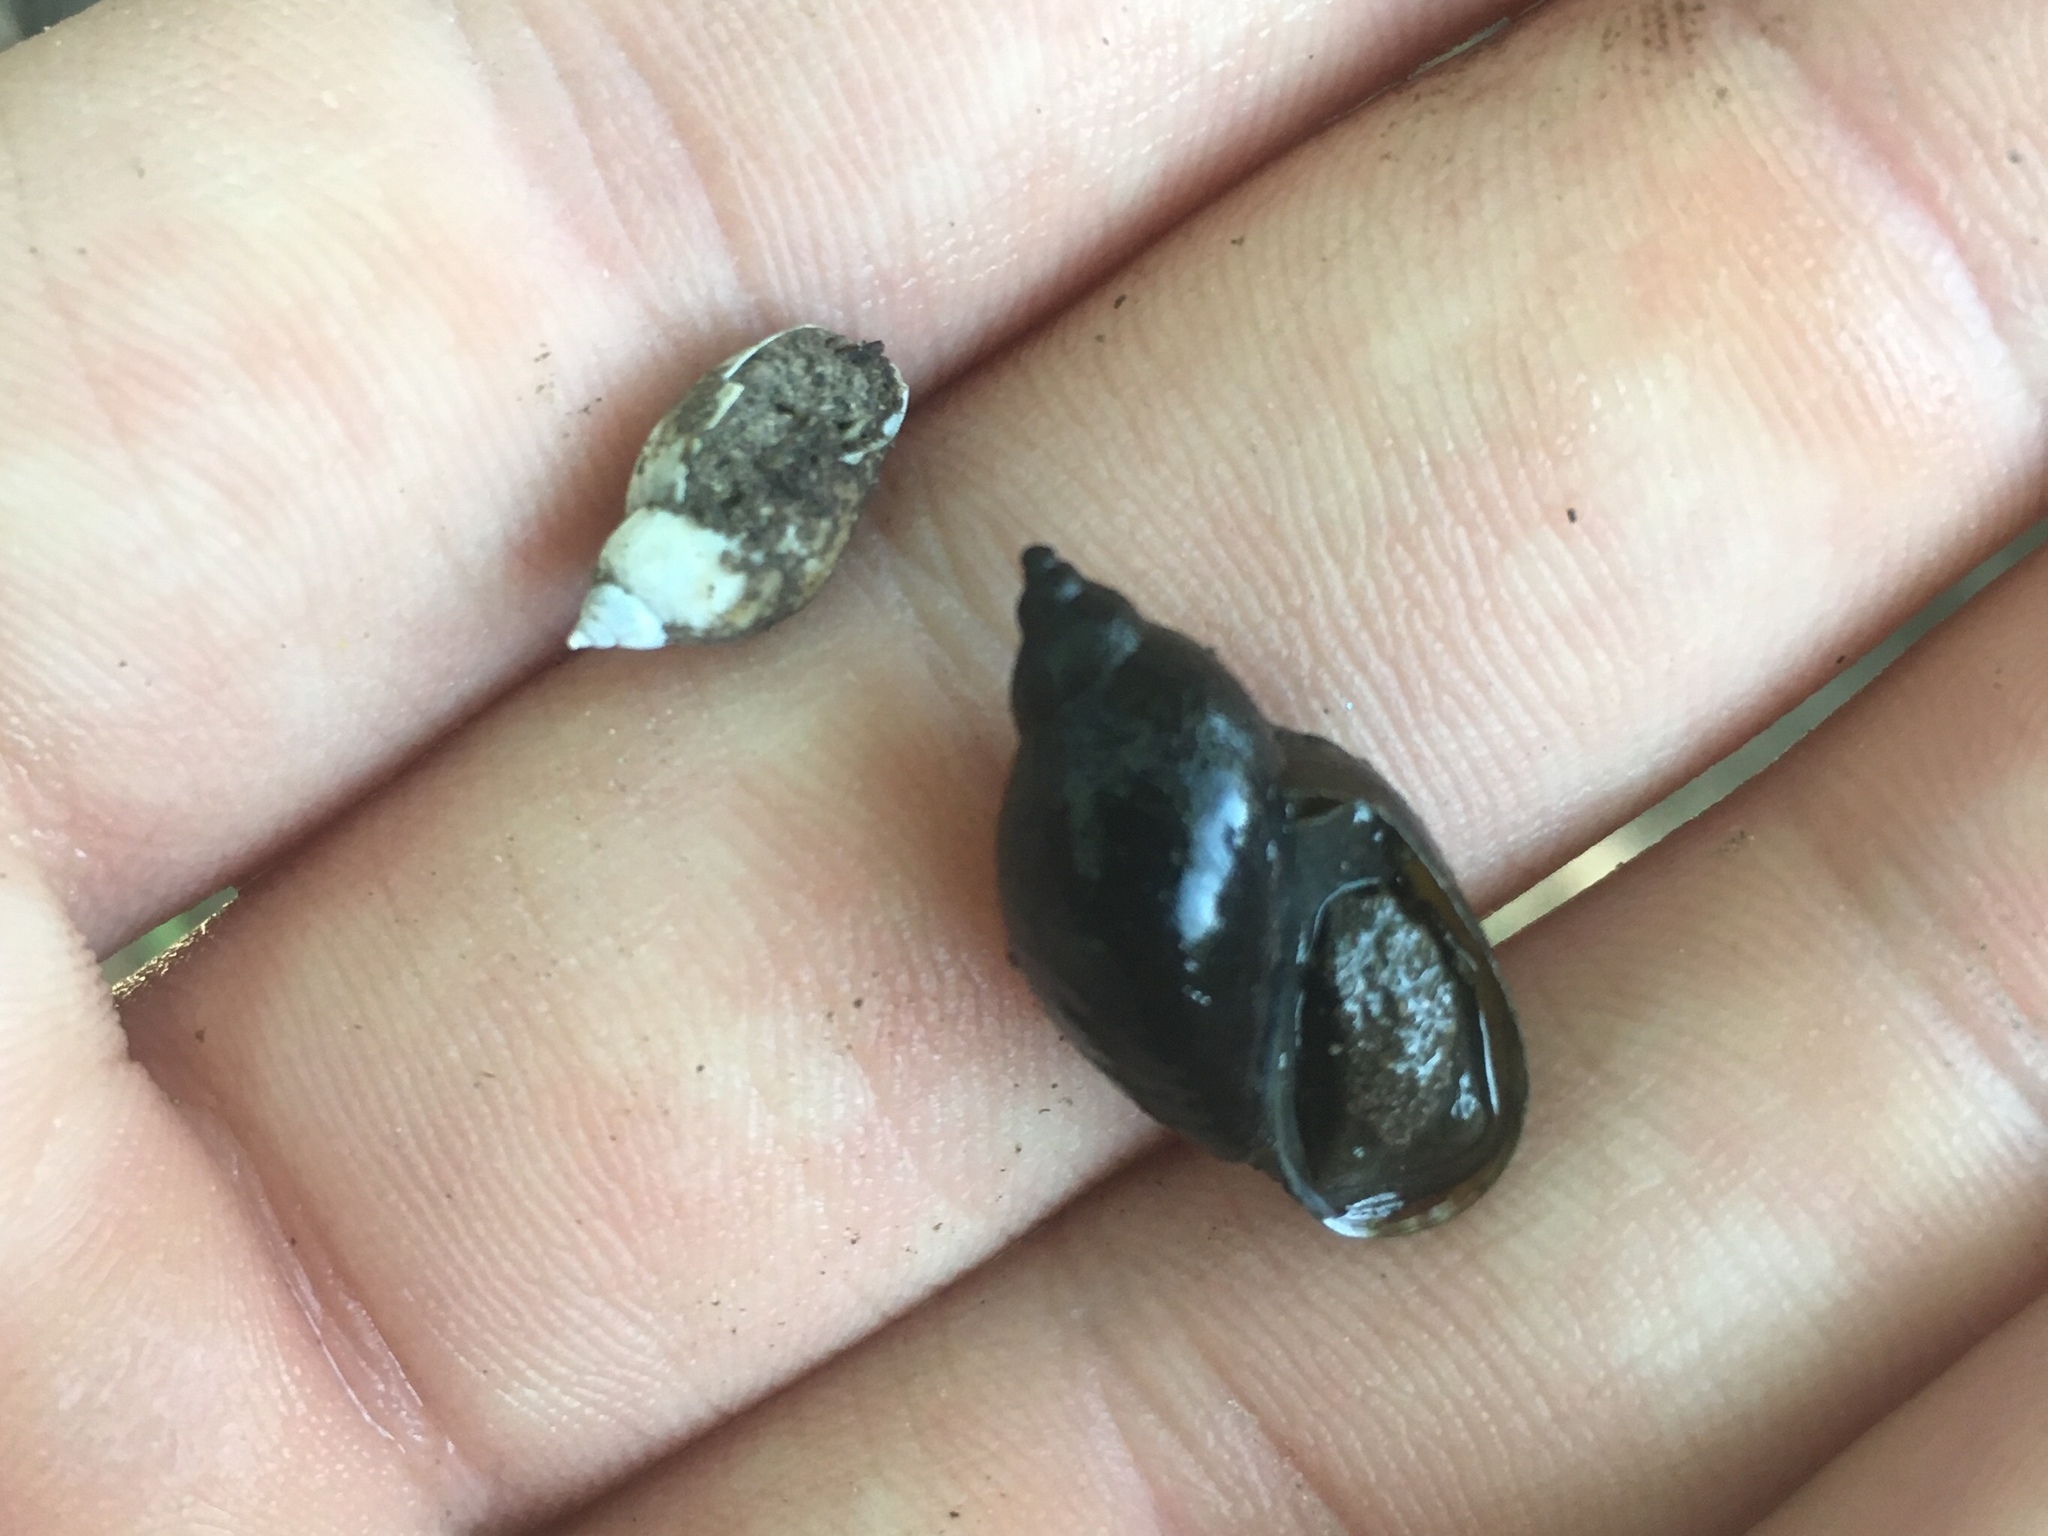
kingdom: Animalia
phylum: Mollusca
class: Gastropoda
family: Chilinidae
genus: Chilina
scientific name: Chilina parchappii
